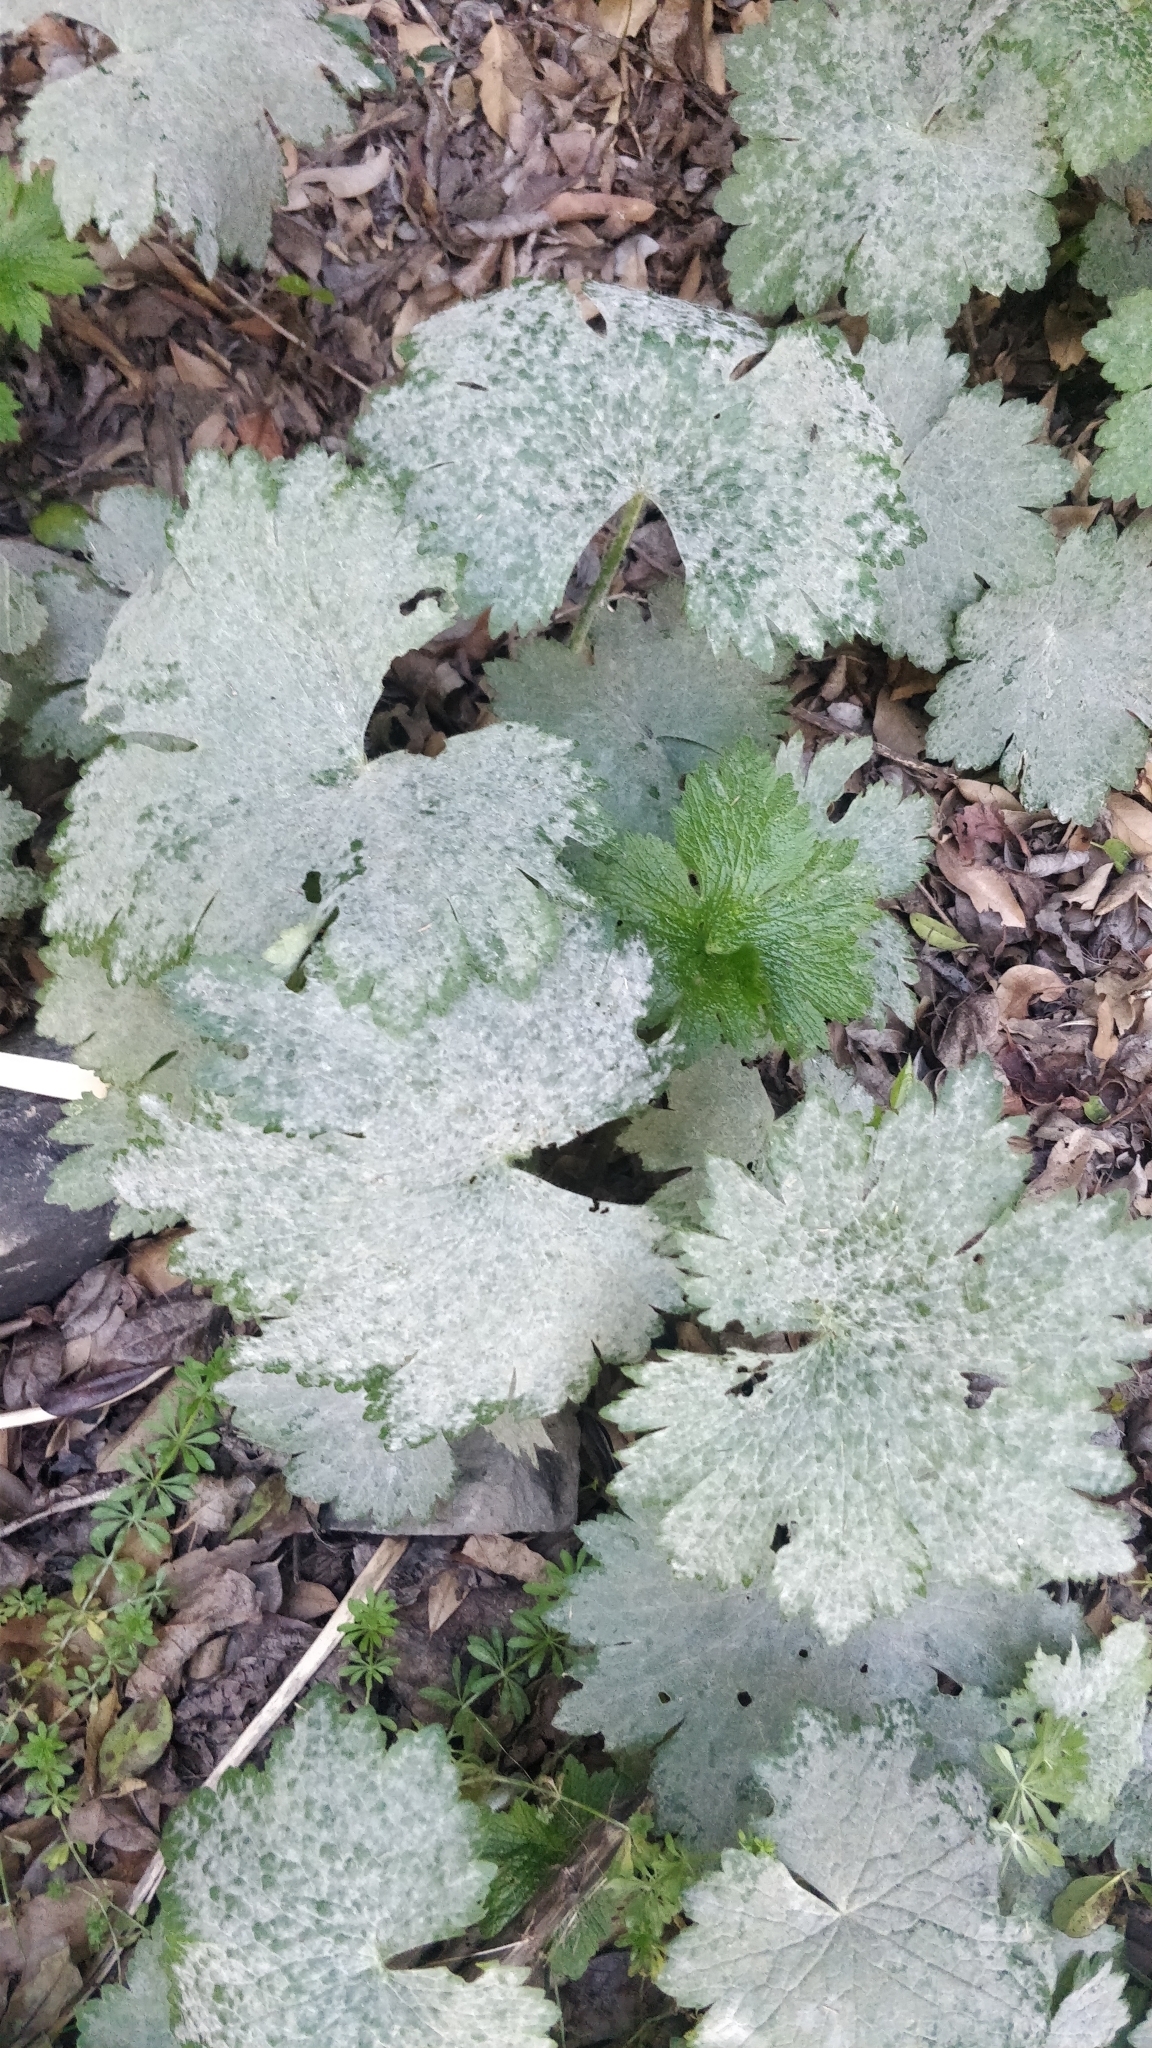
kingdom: Fungi
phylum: Ascomycota
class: Leotiomycetes
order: Helotiales
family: Erysiphaceae
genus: Erysiphe
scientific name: Erysiphe aquilegiae
